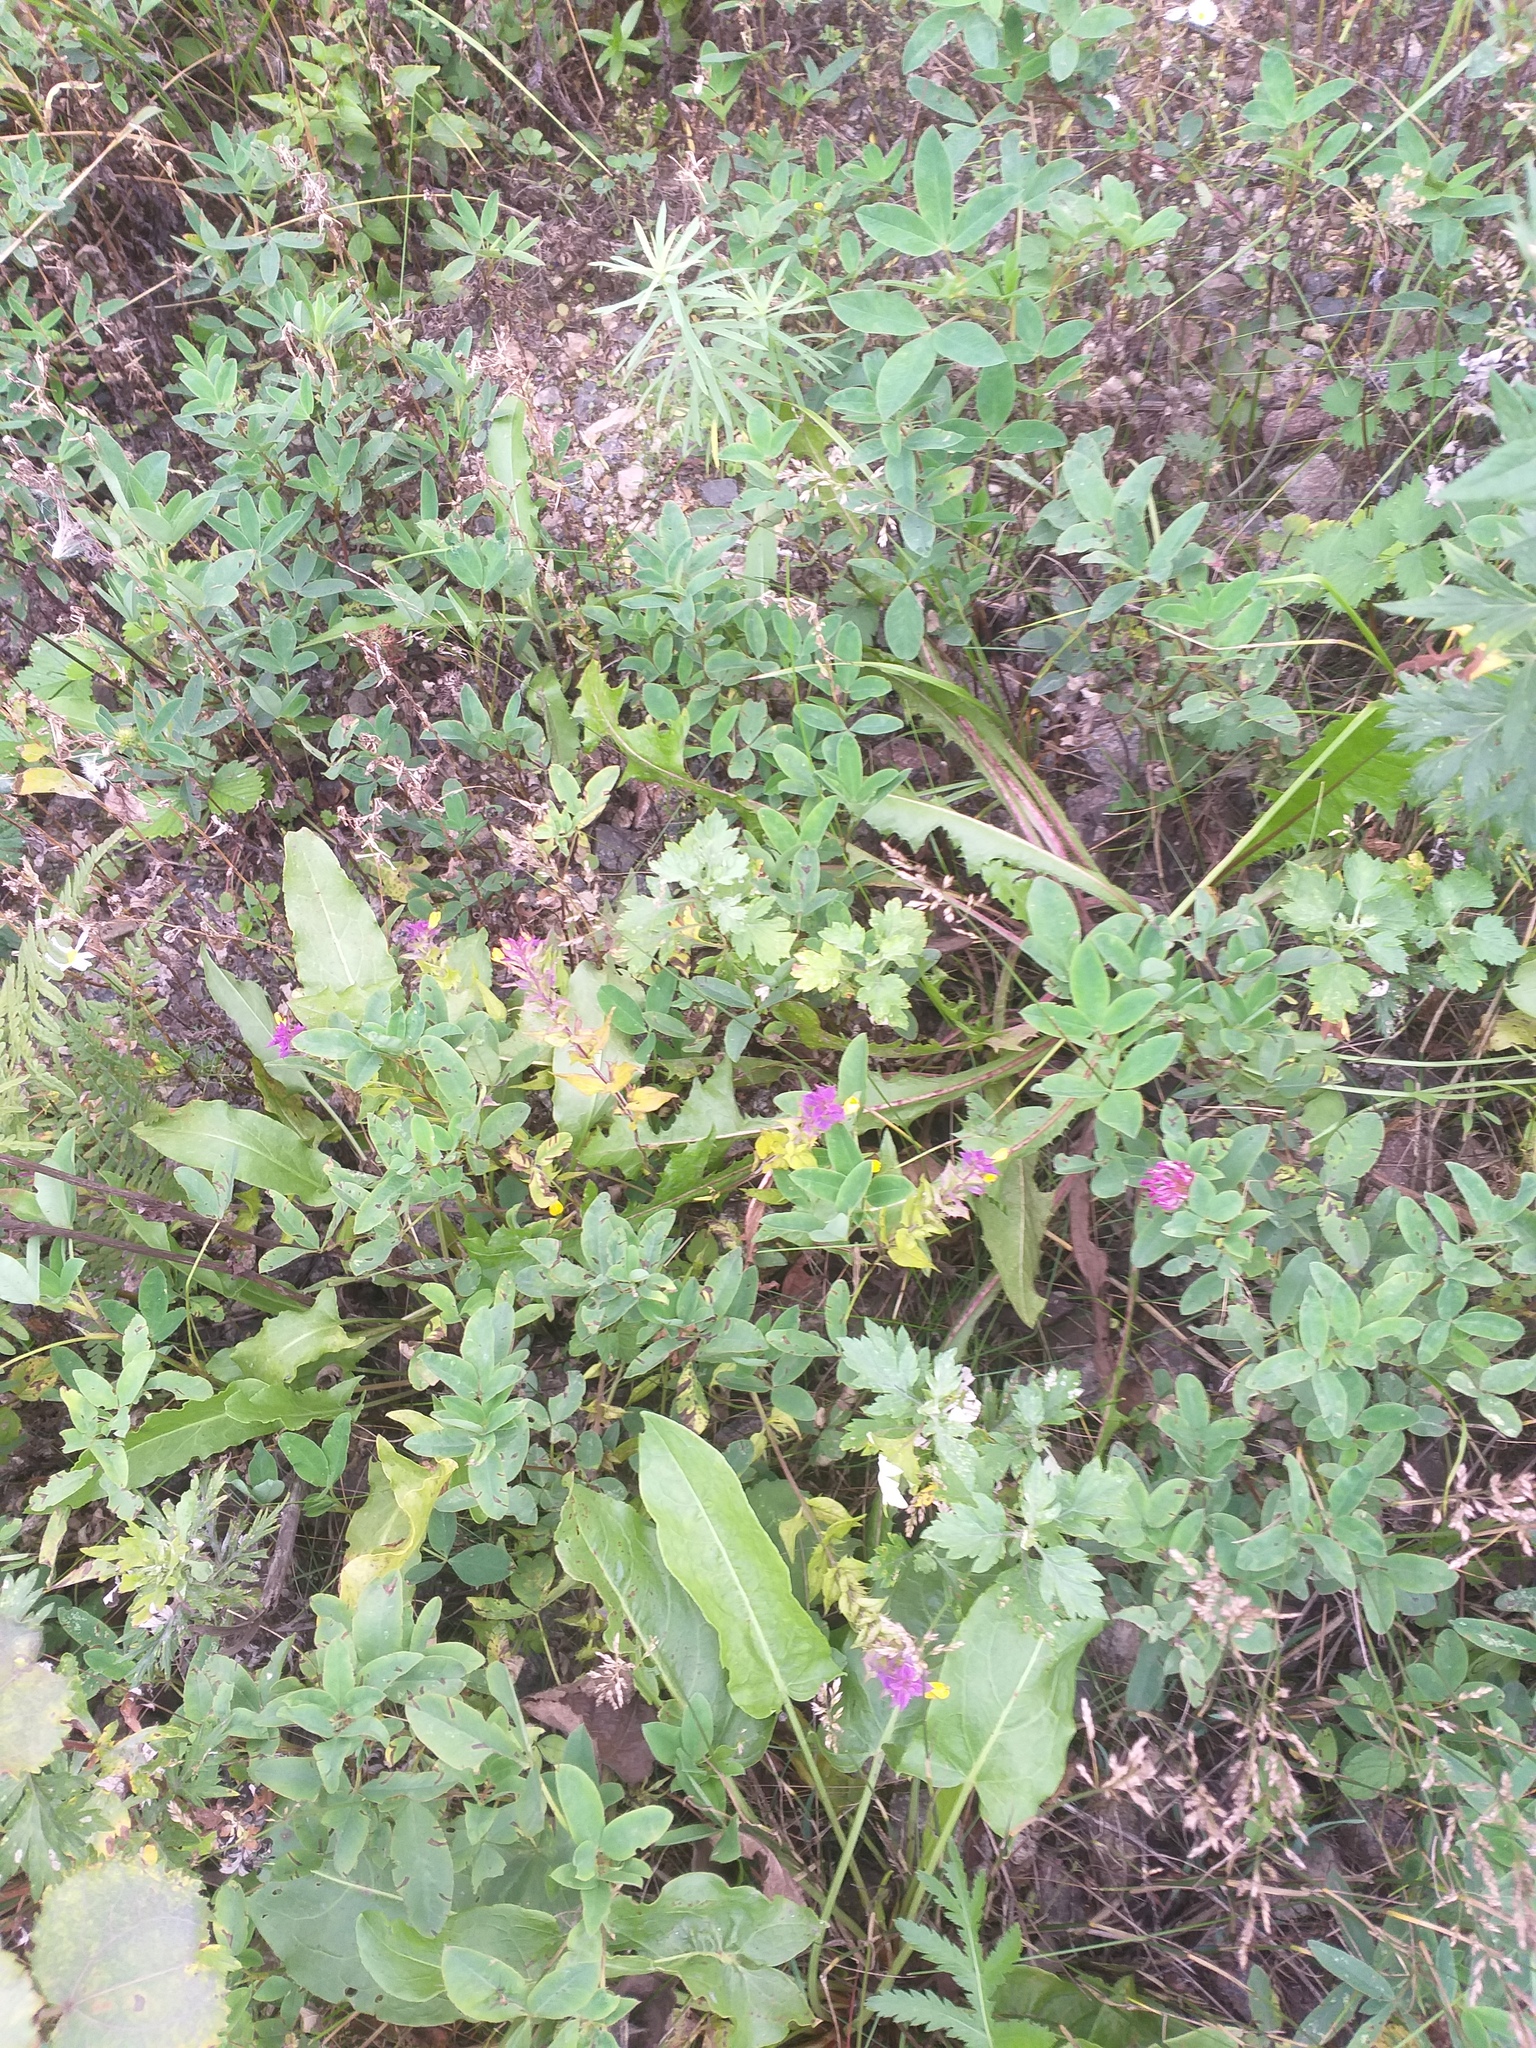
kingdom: Plantae
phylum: Tracheophyta
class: Magnoliopsida
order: Lamiales
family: Orobanchaceae
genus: Melampyrum
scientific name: Melampyrum nemorosum
